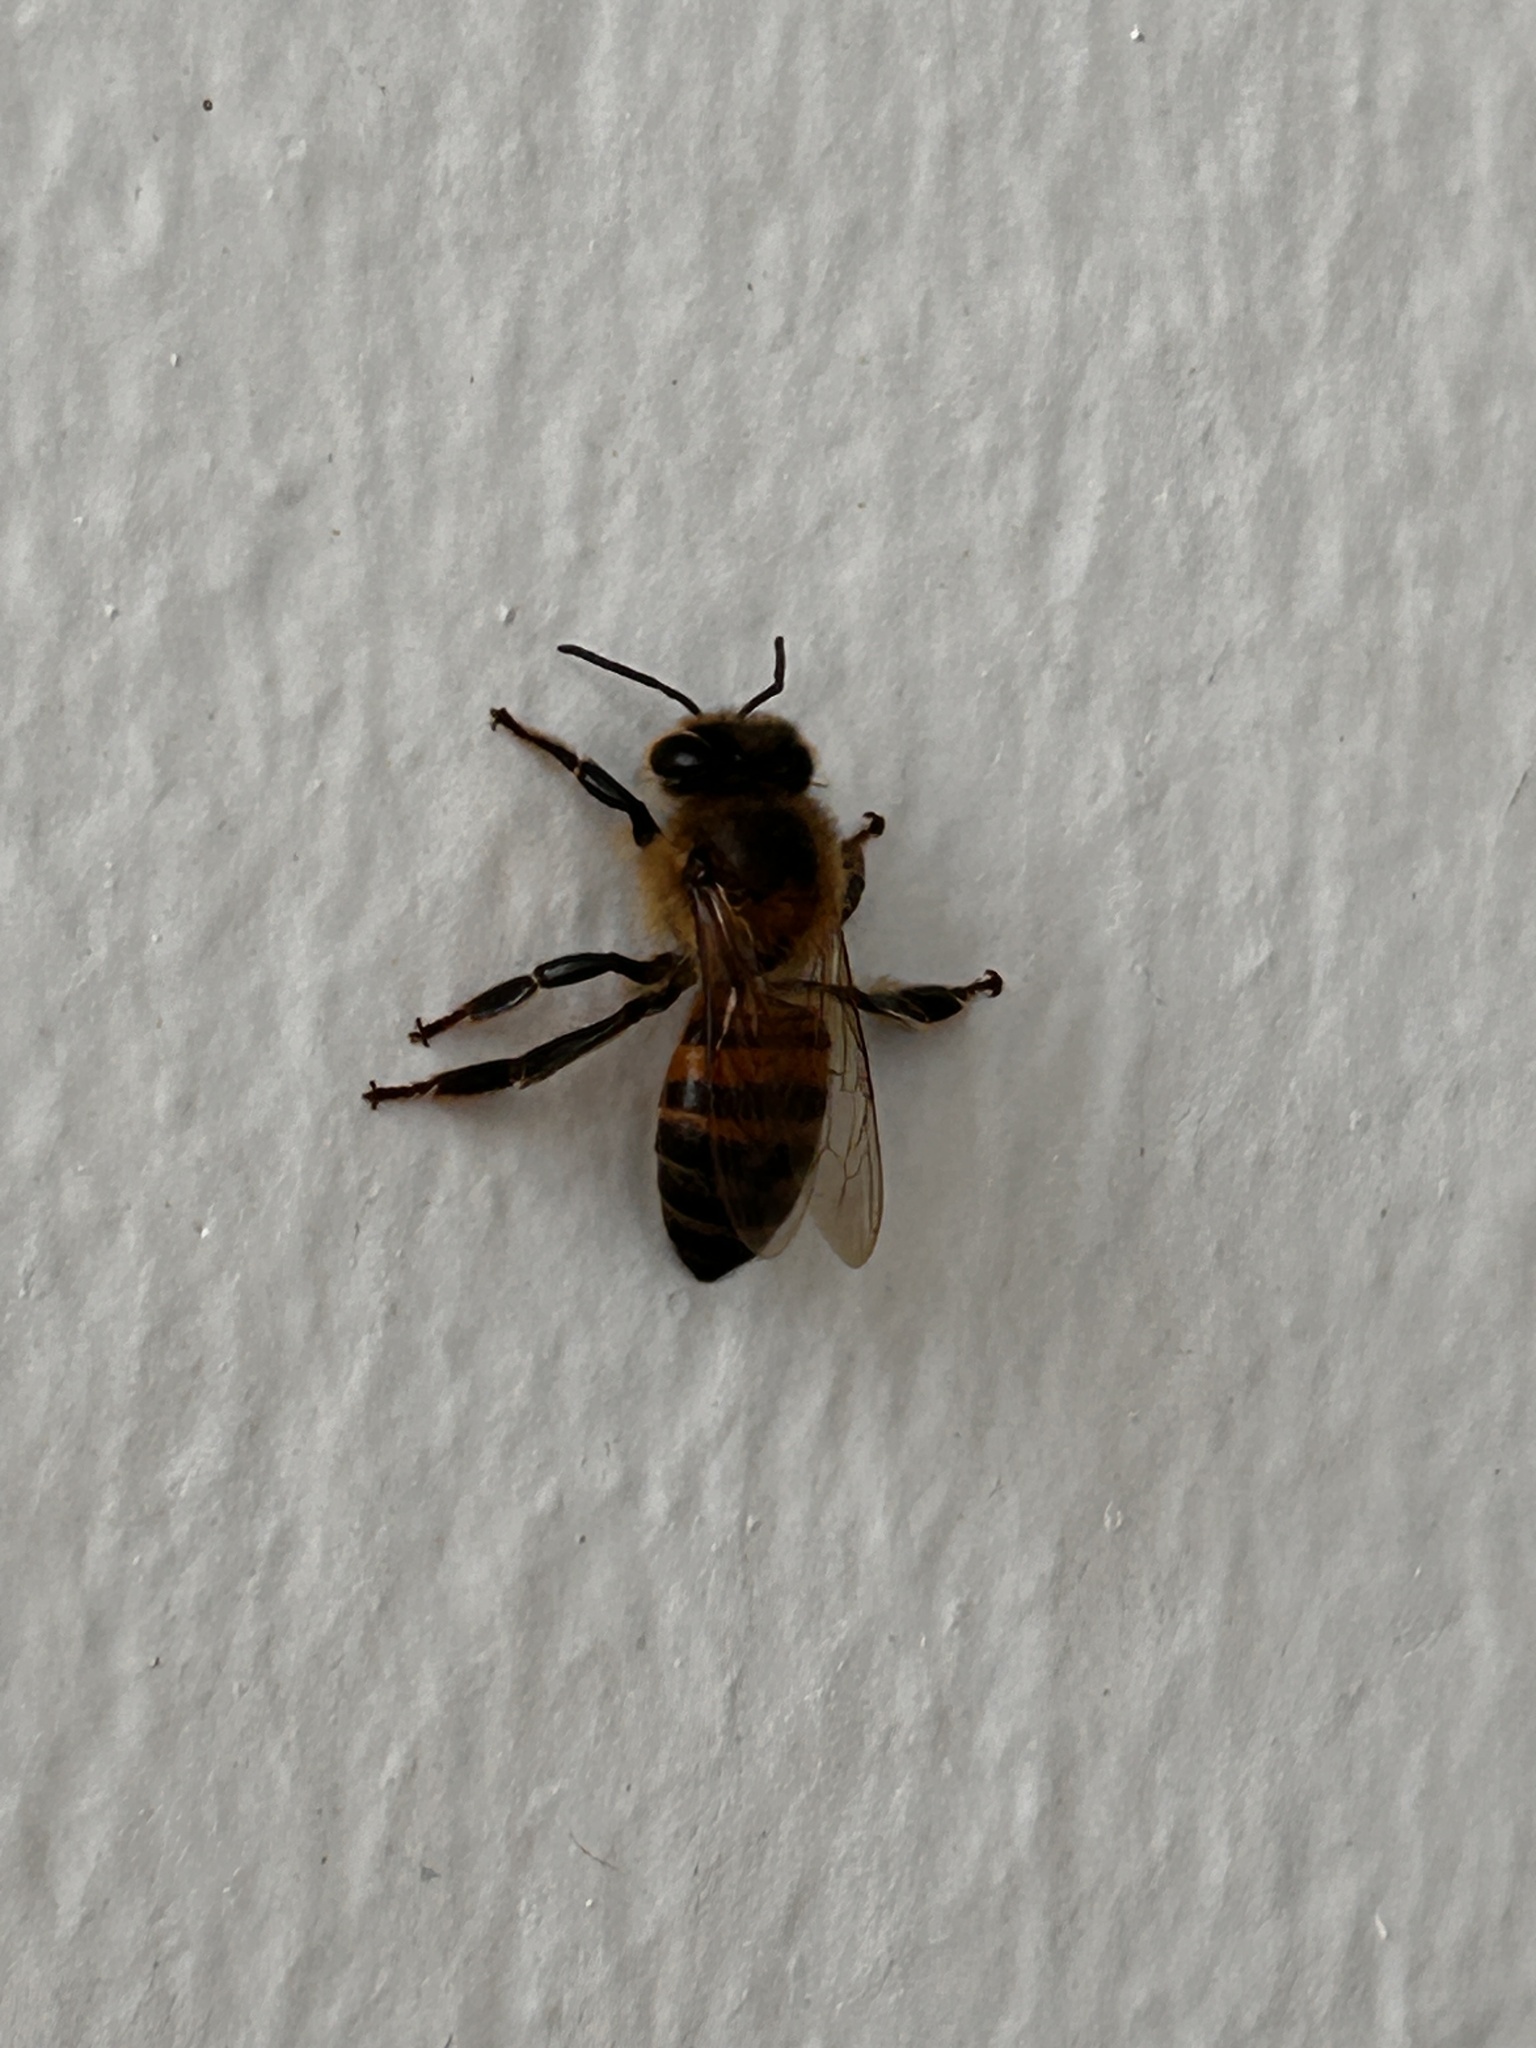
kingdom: Animalia
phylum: Arthropoda
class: Insecta
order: Hymenoptera
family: Apidae
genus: Apis
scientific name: Apis mellifera
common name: Honey bee
